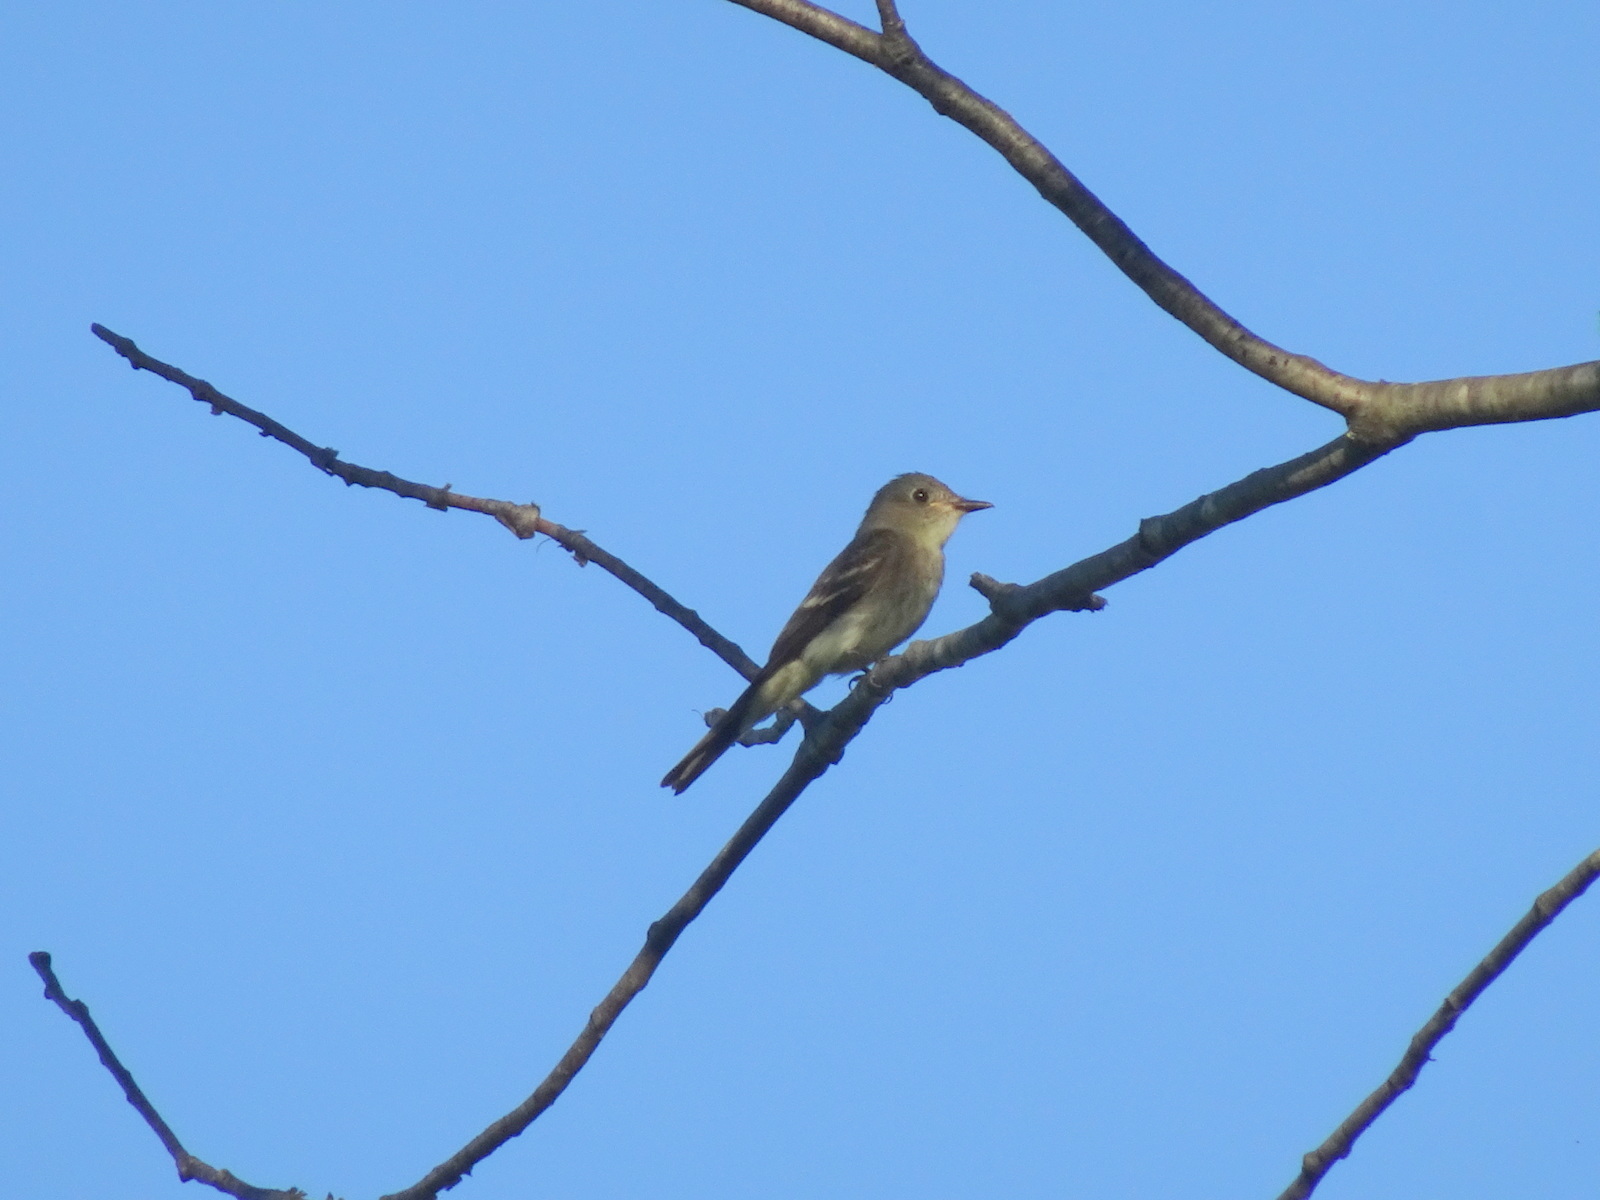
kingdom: Animalia
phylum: Chordata
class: Aves
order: Passeriformes
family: Tyrannidae
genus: Contopus
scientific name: Contopus virens
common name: Eastern wood-pewee
